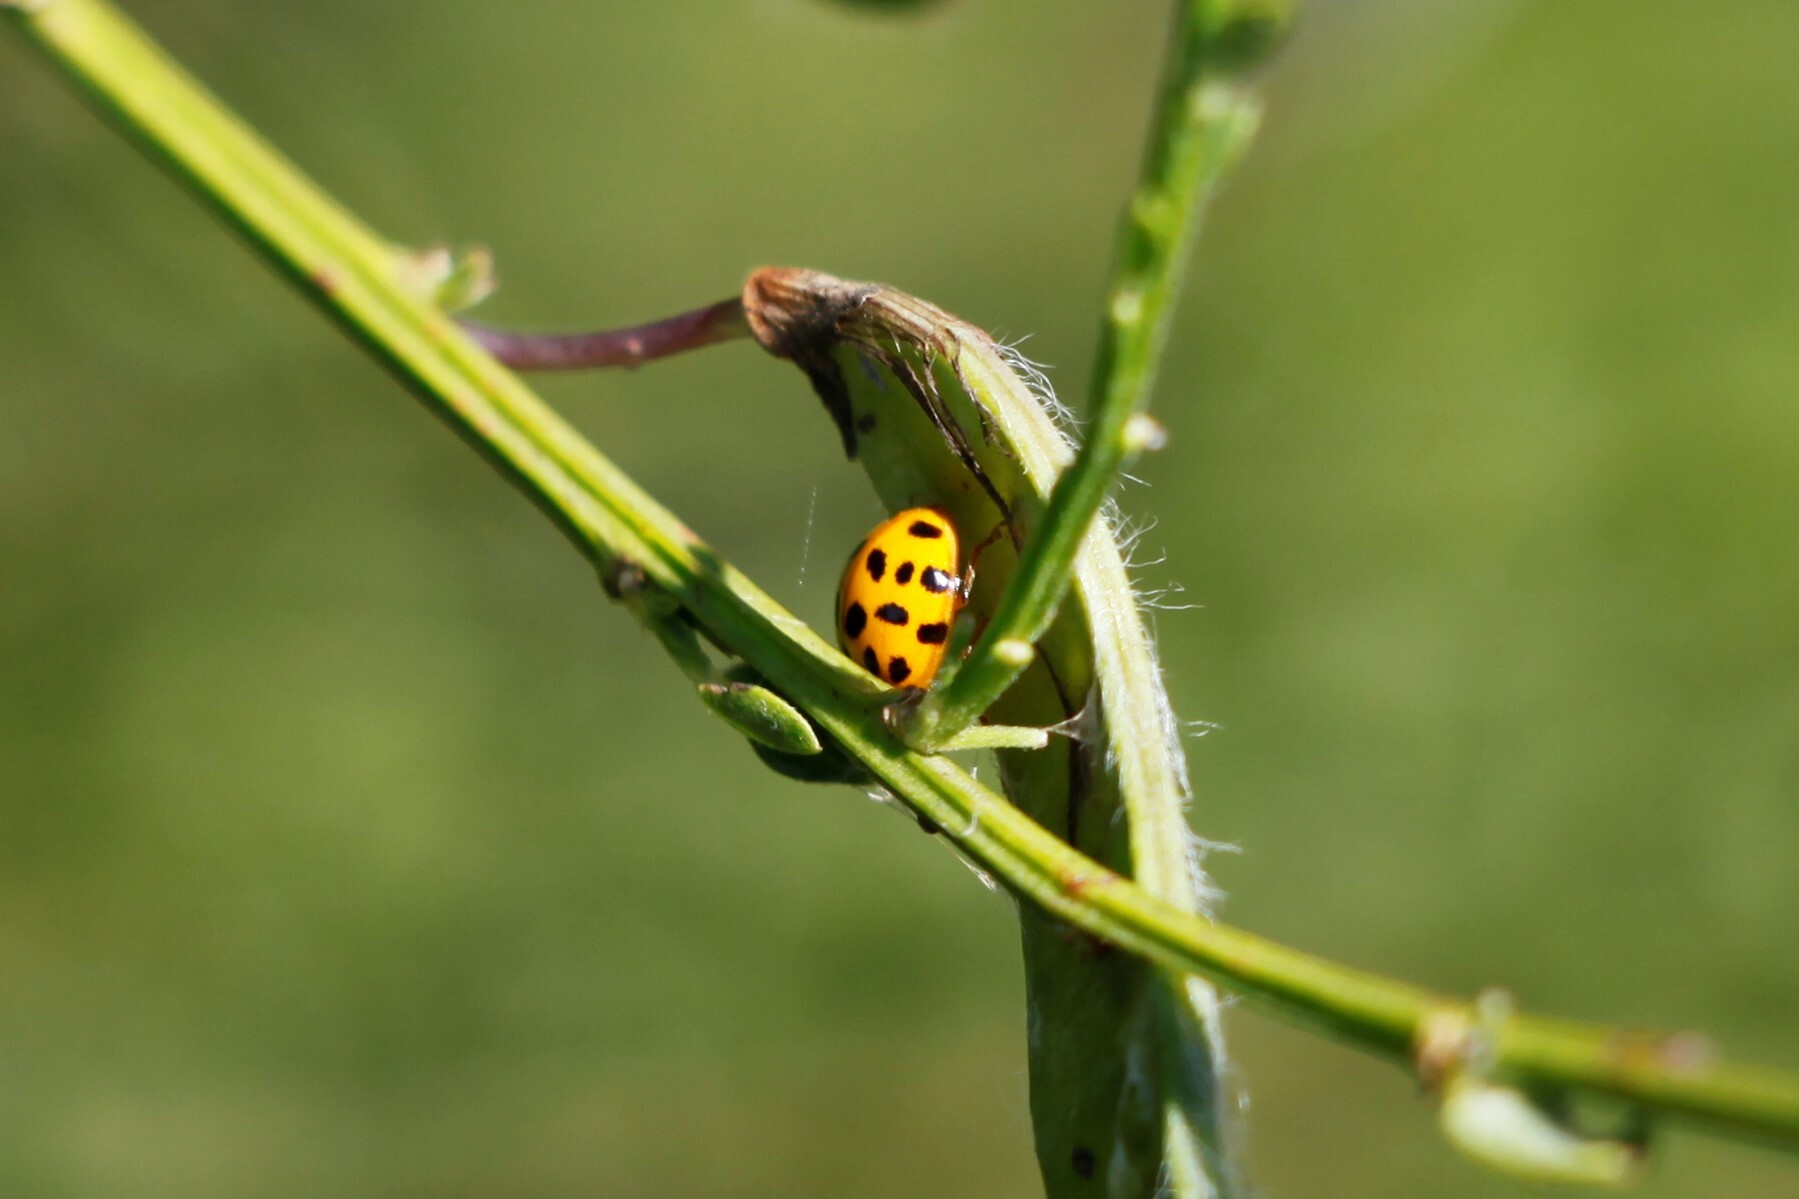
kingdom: Animalia
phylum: Arthropoda
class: Insecta
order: Coleoptera
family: Coccinellidae
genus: Harmonia
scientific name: Harmonia axyridis
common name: Harlequin ladybird
